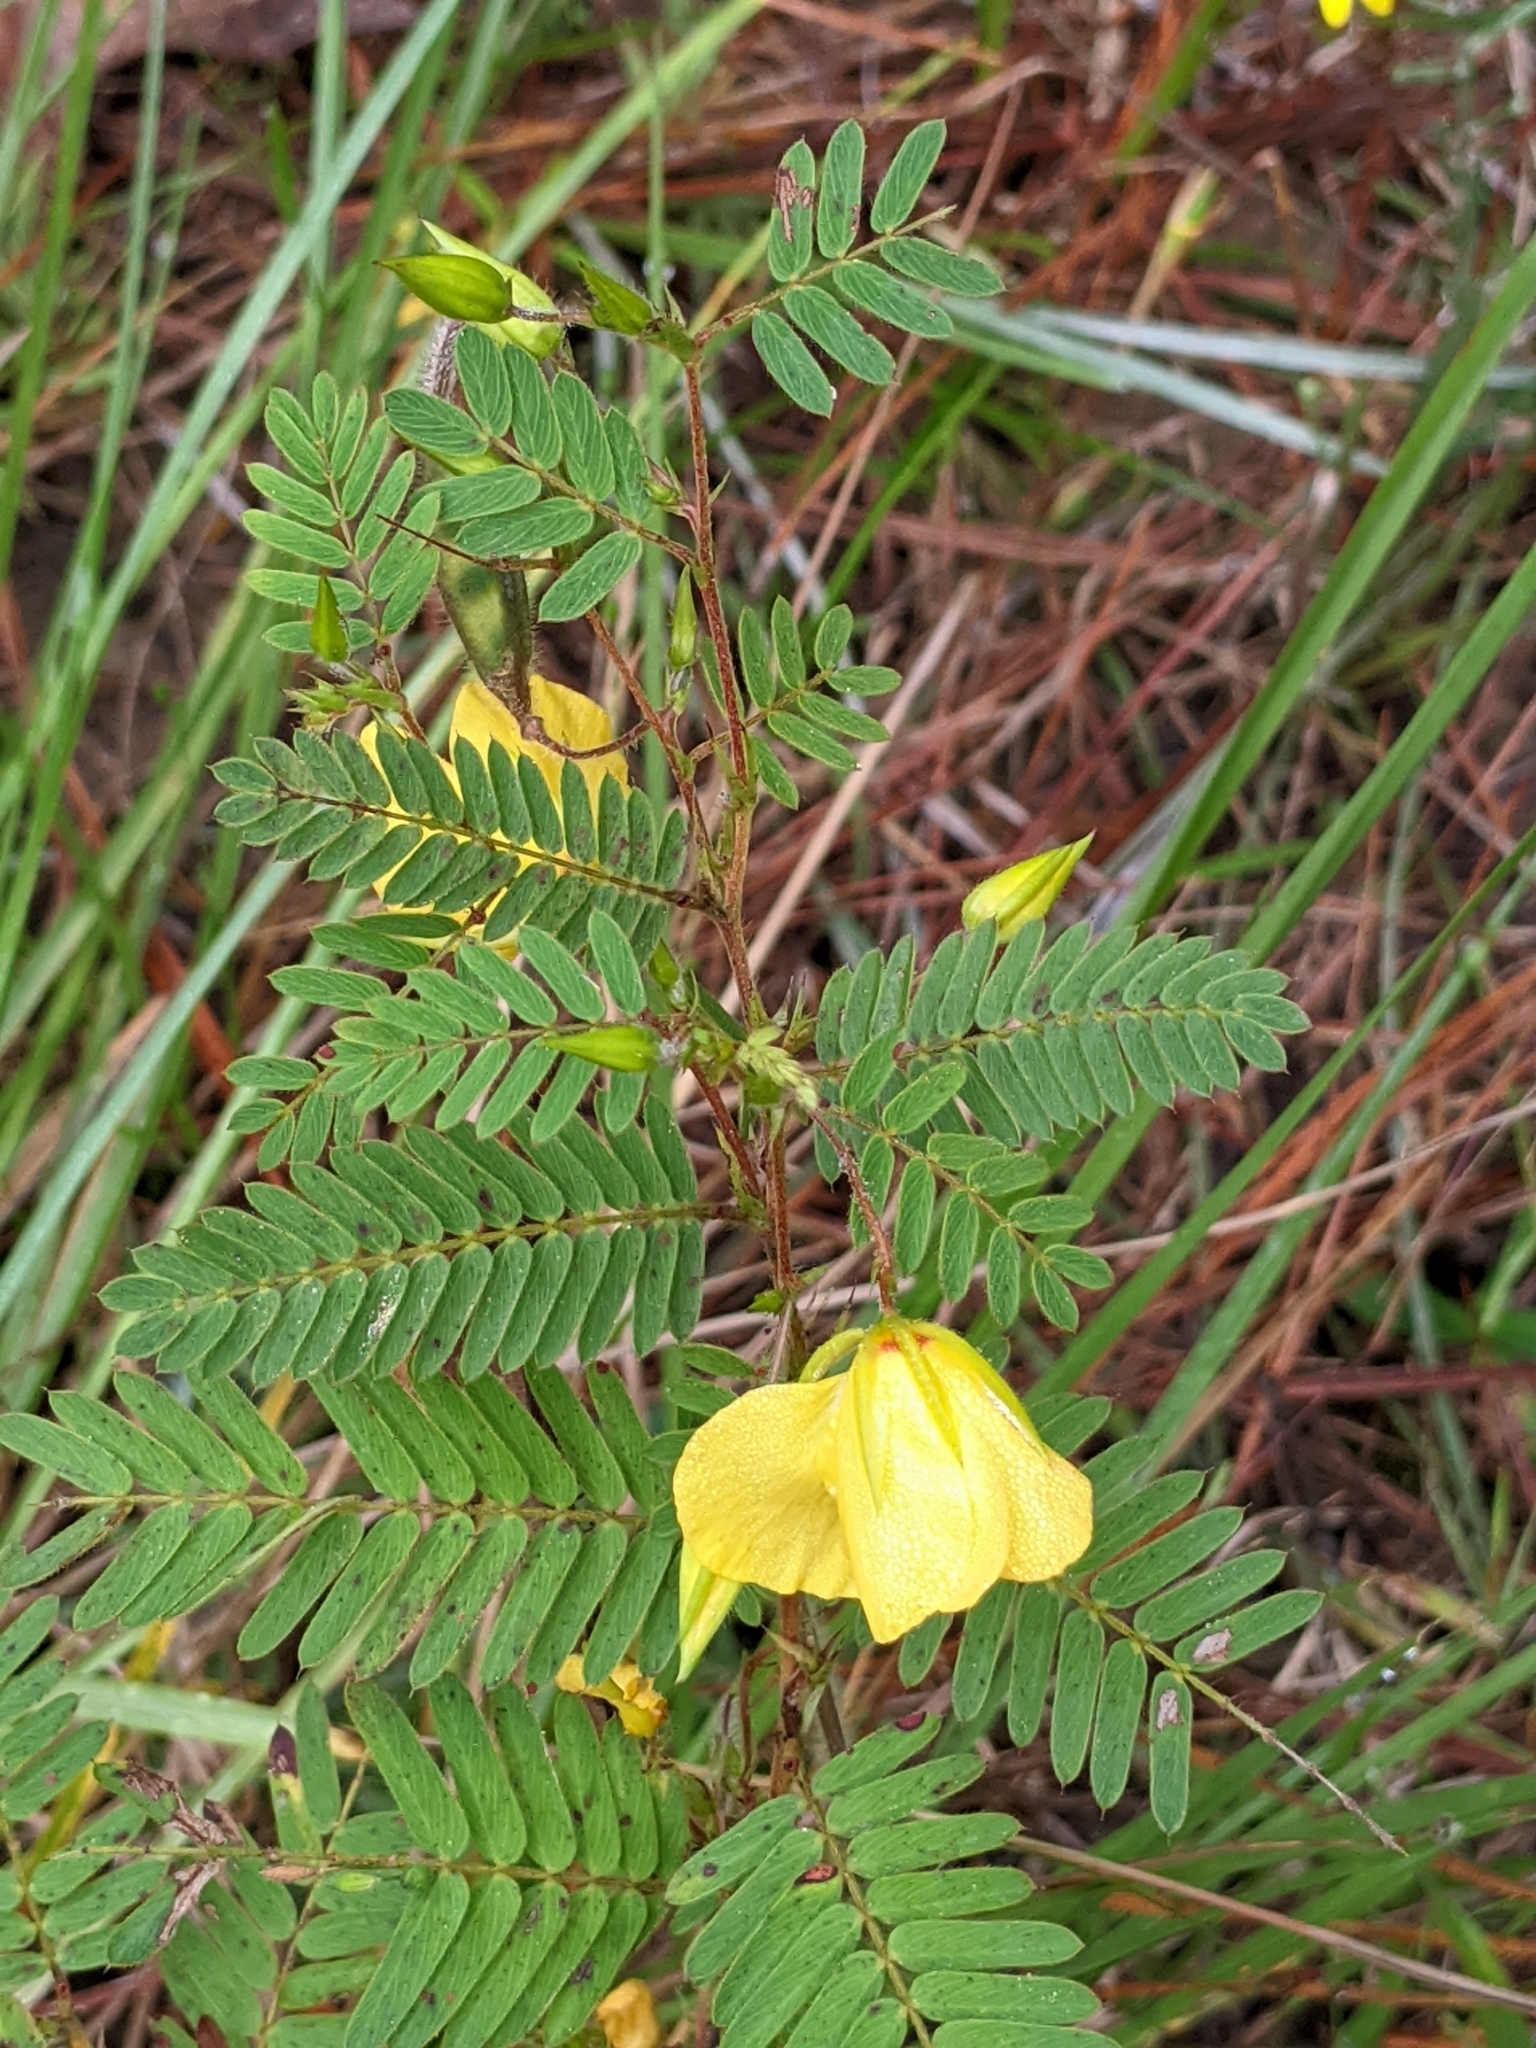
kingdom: Plantae
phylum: Tracheophyta
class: Magnoliopsida
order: Fabales
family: Fabaceae
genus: Chamaecrista
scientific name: Chamaecrista fasciculata
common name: Golden cassia
